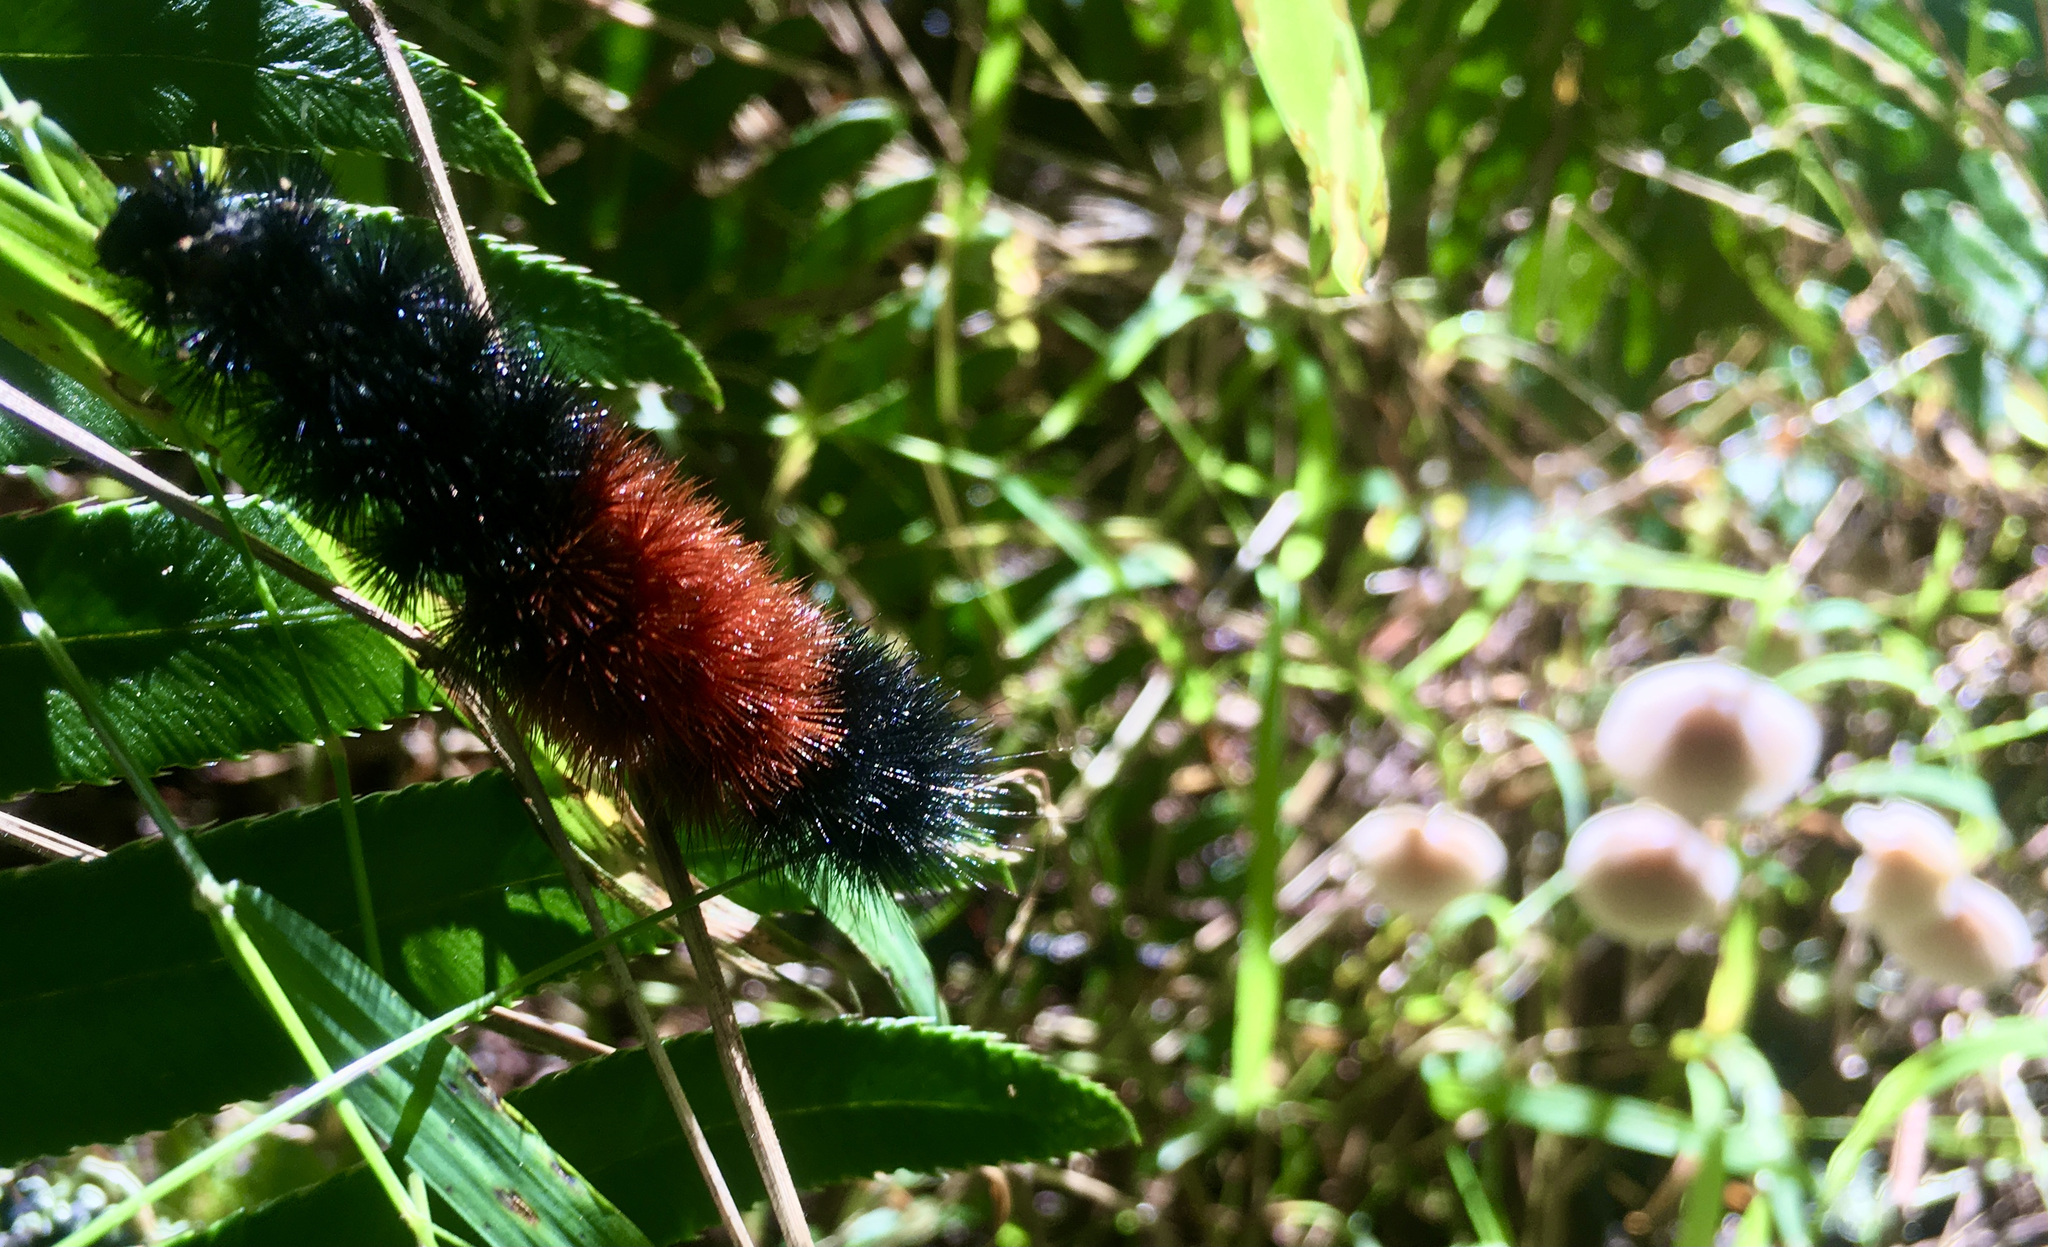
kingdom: Animalia
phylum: Arthropoda
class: Insecta
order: Lepidoptera
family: Erebidae
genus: Pyrrharctia
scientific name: Pyrrharctia isabella
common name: Isabella tiger moth
